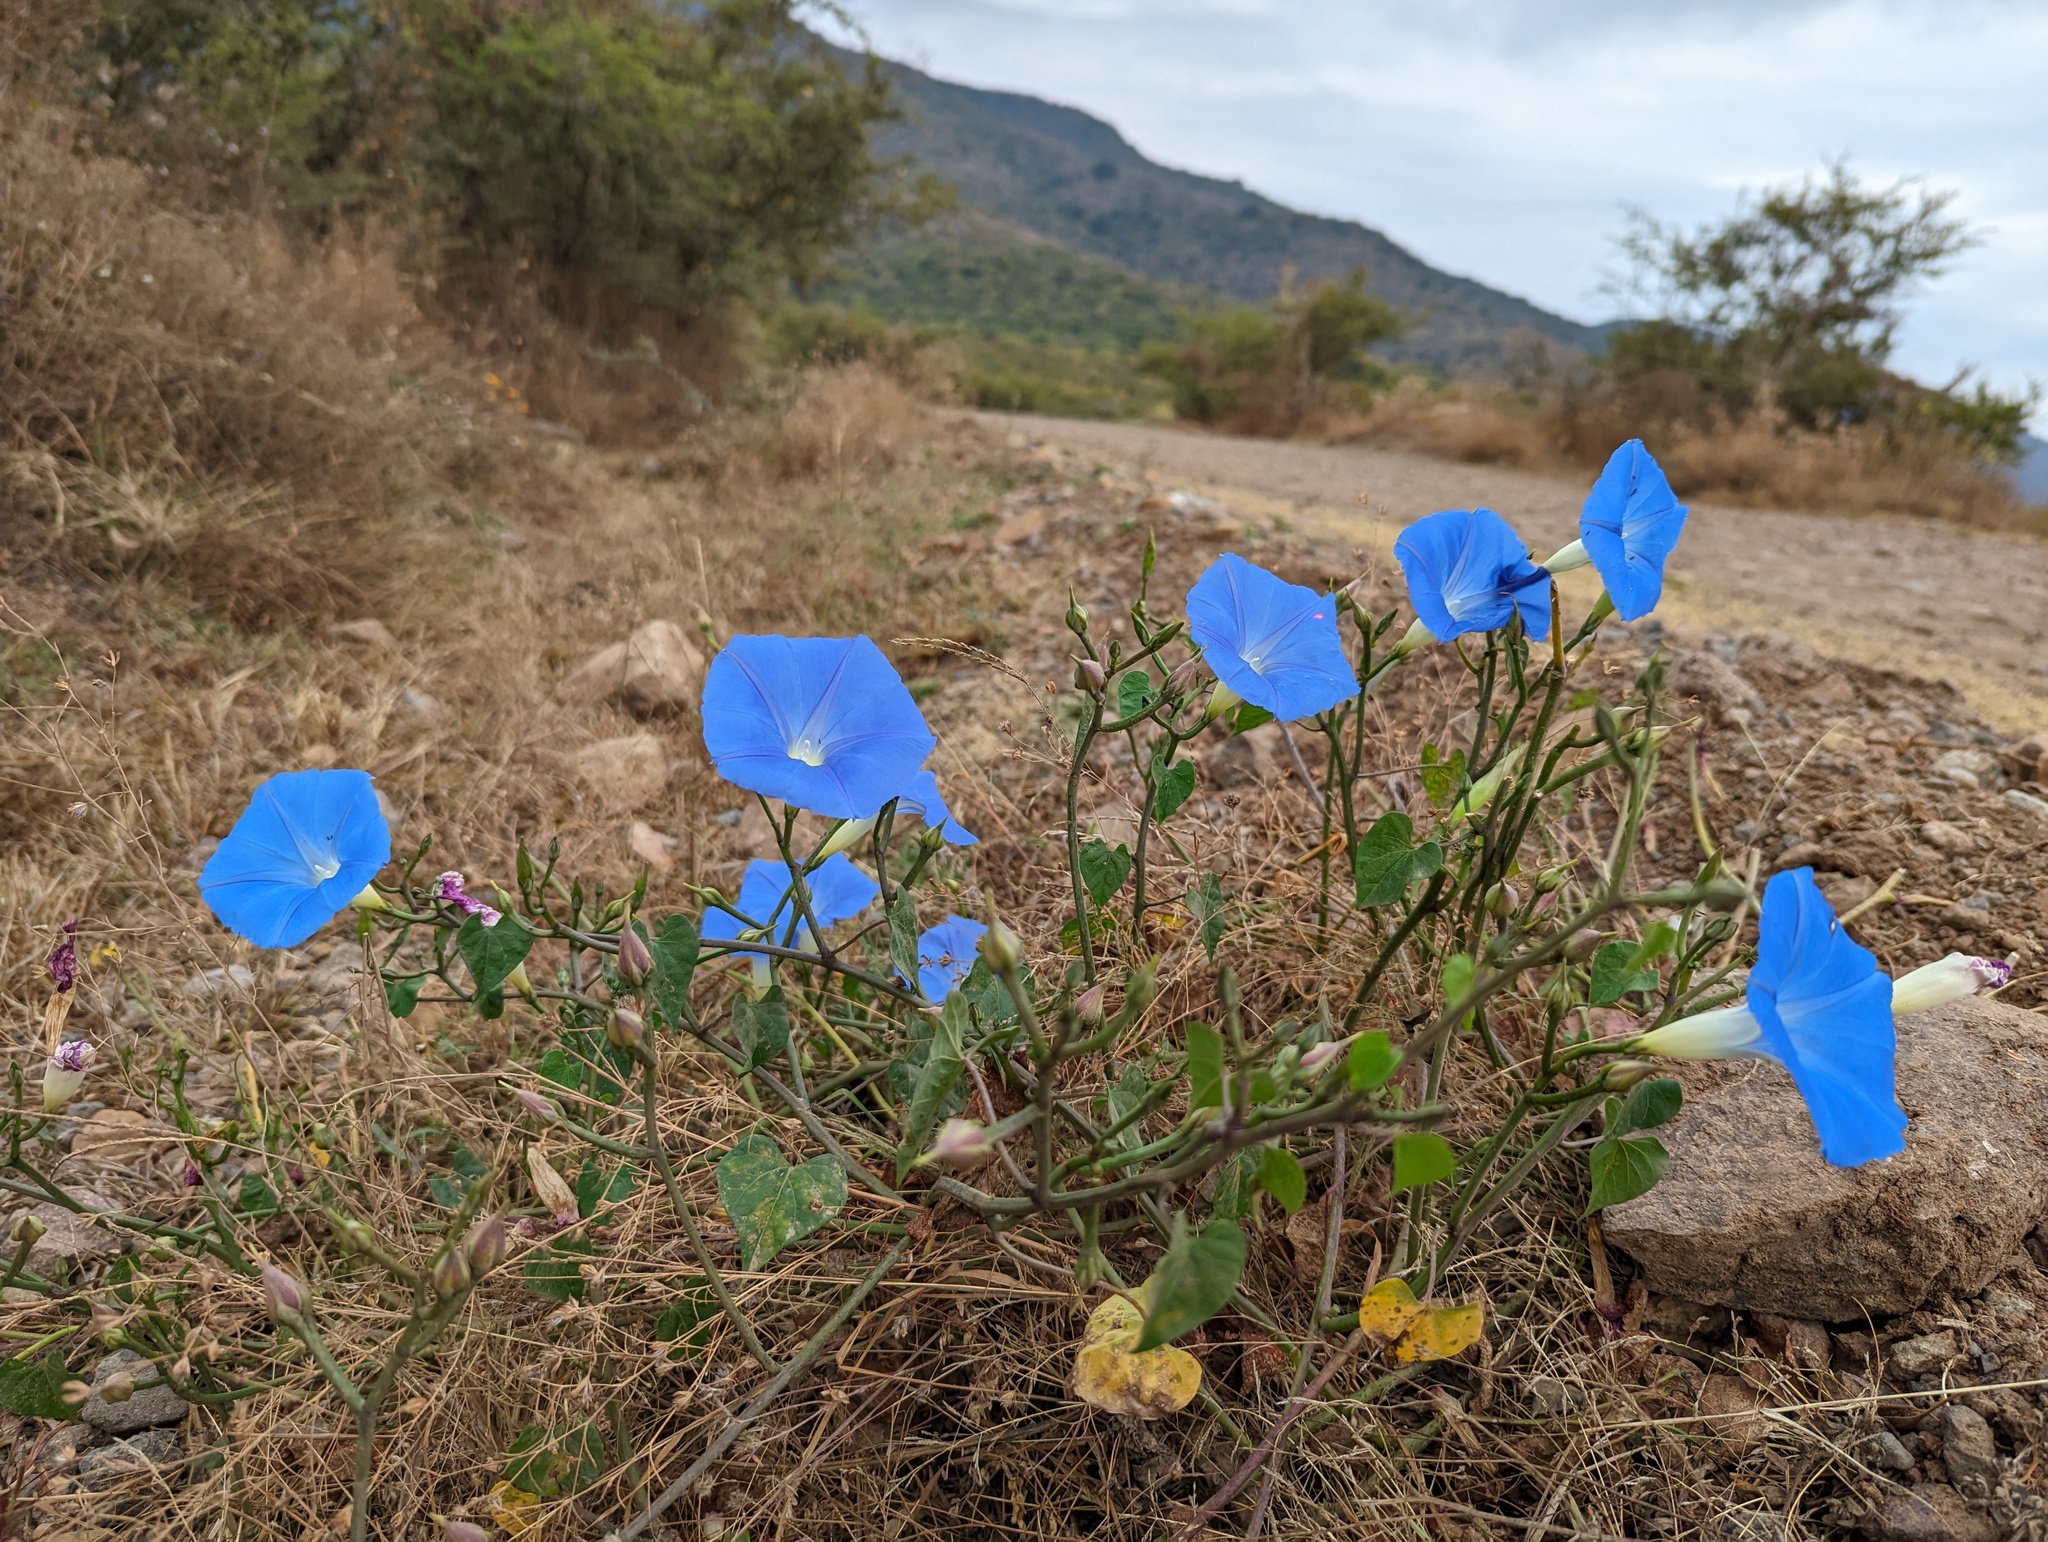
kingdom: Plantae
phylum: Tracheophyta
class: Magnoliopsida
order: Solanales
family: Convolvulaceae
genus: Ipomoea
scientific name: Ipomoea tricolor
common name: Morning-glory
